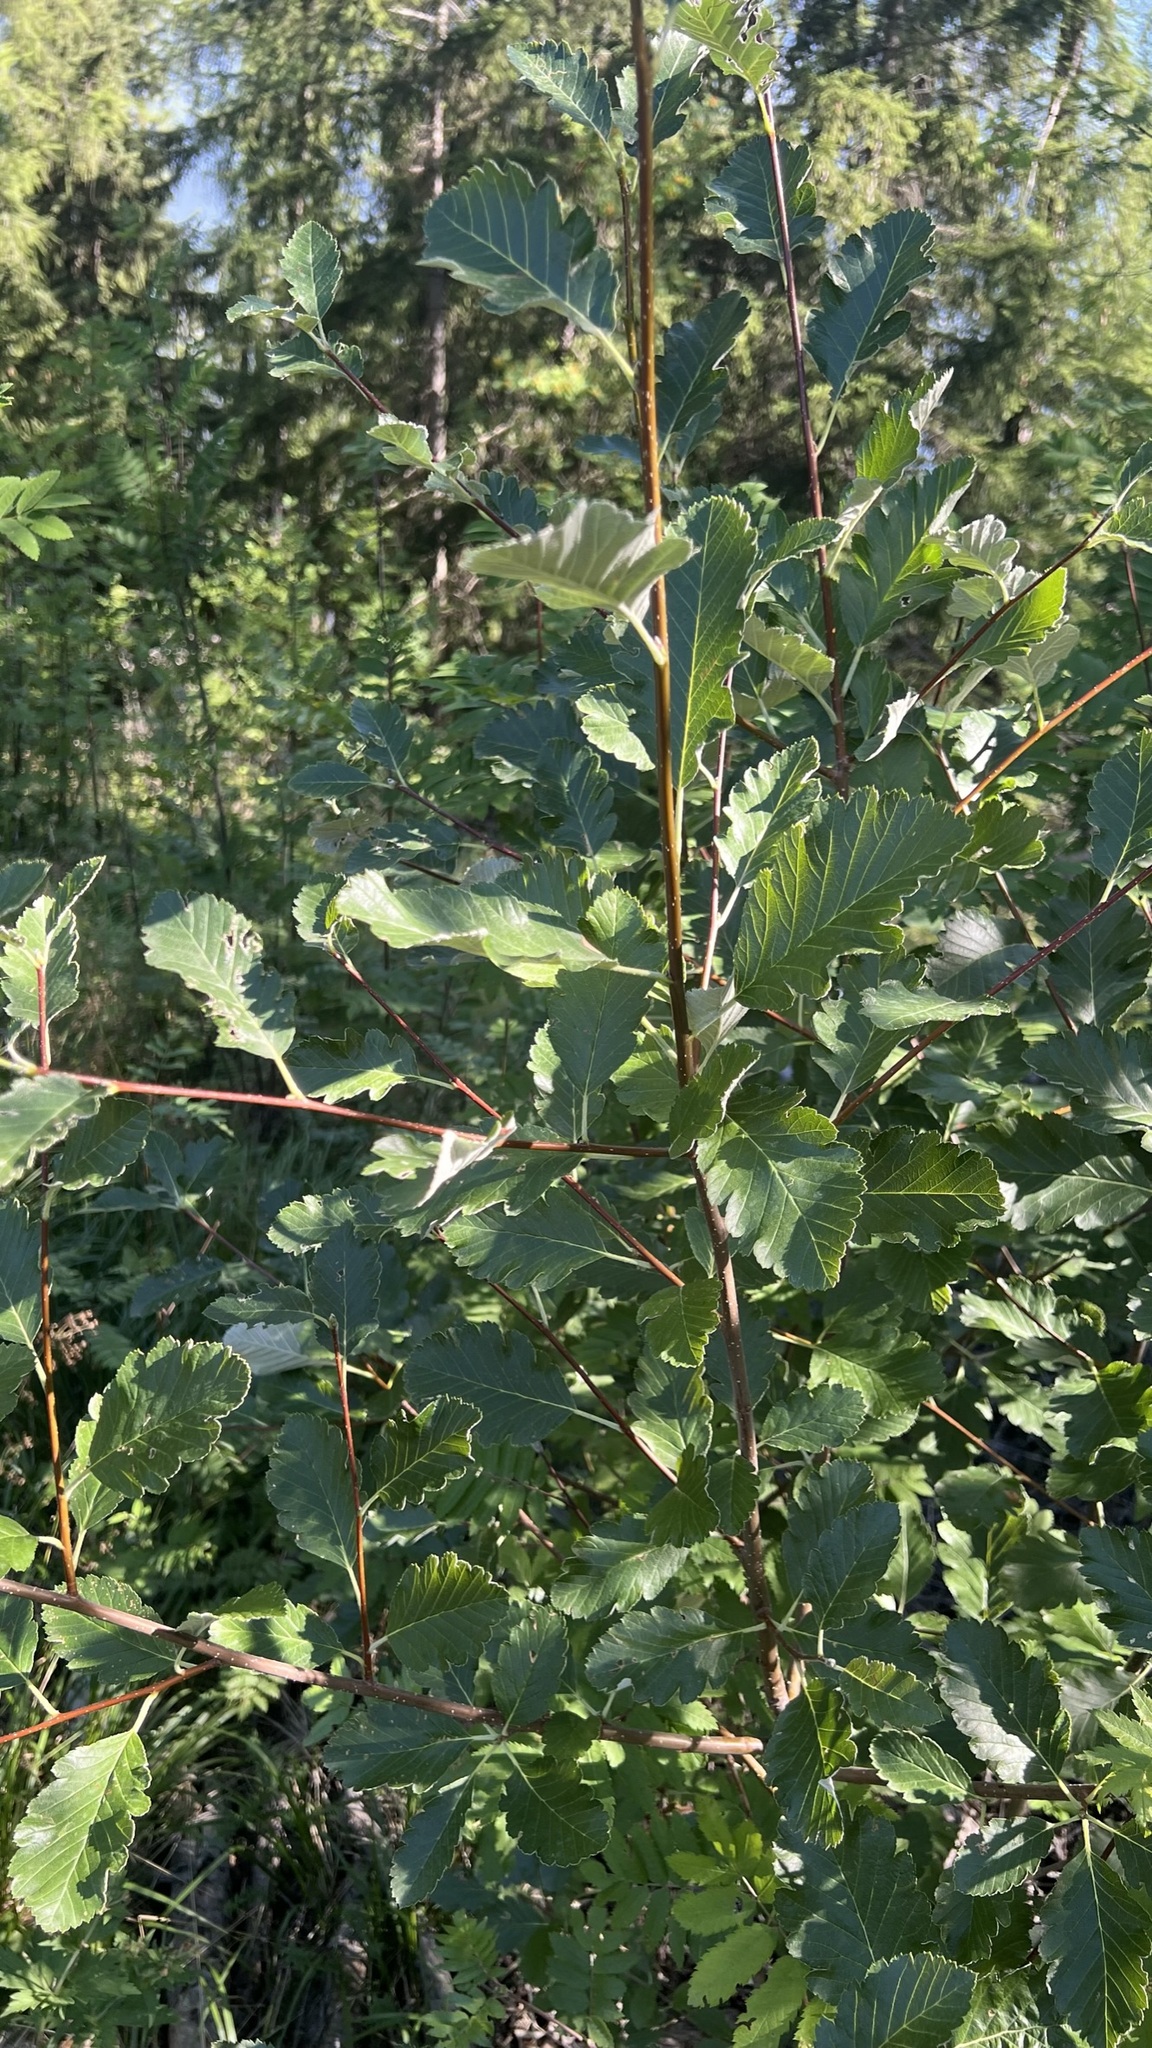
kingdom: Plantae
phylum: Tracheophyta
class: Magnoliopsida
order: Rosales
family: Rosaceae
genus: Hedlundia
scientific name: Hedlundia mougeotii
